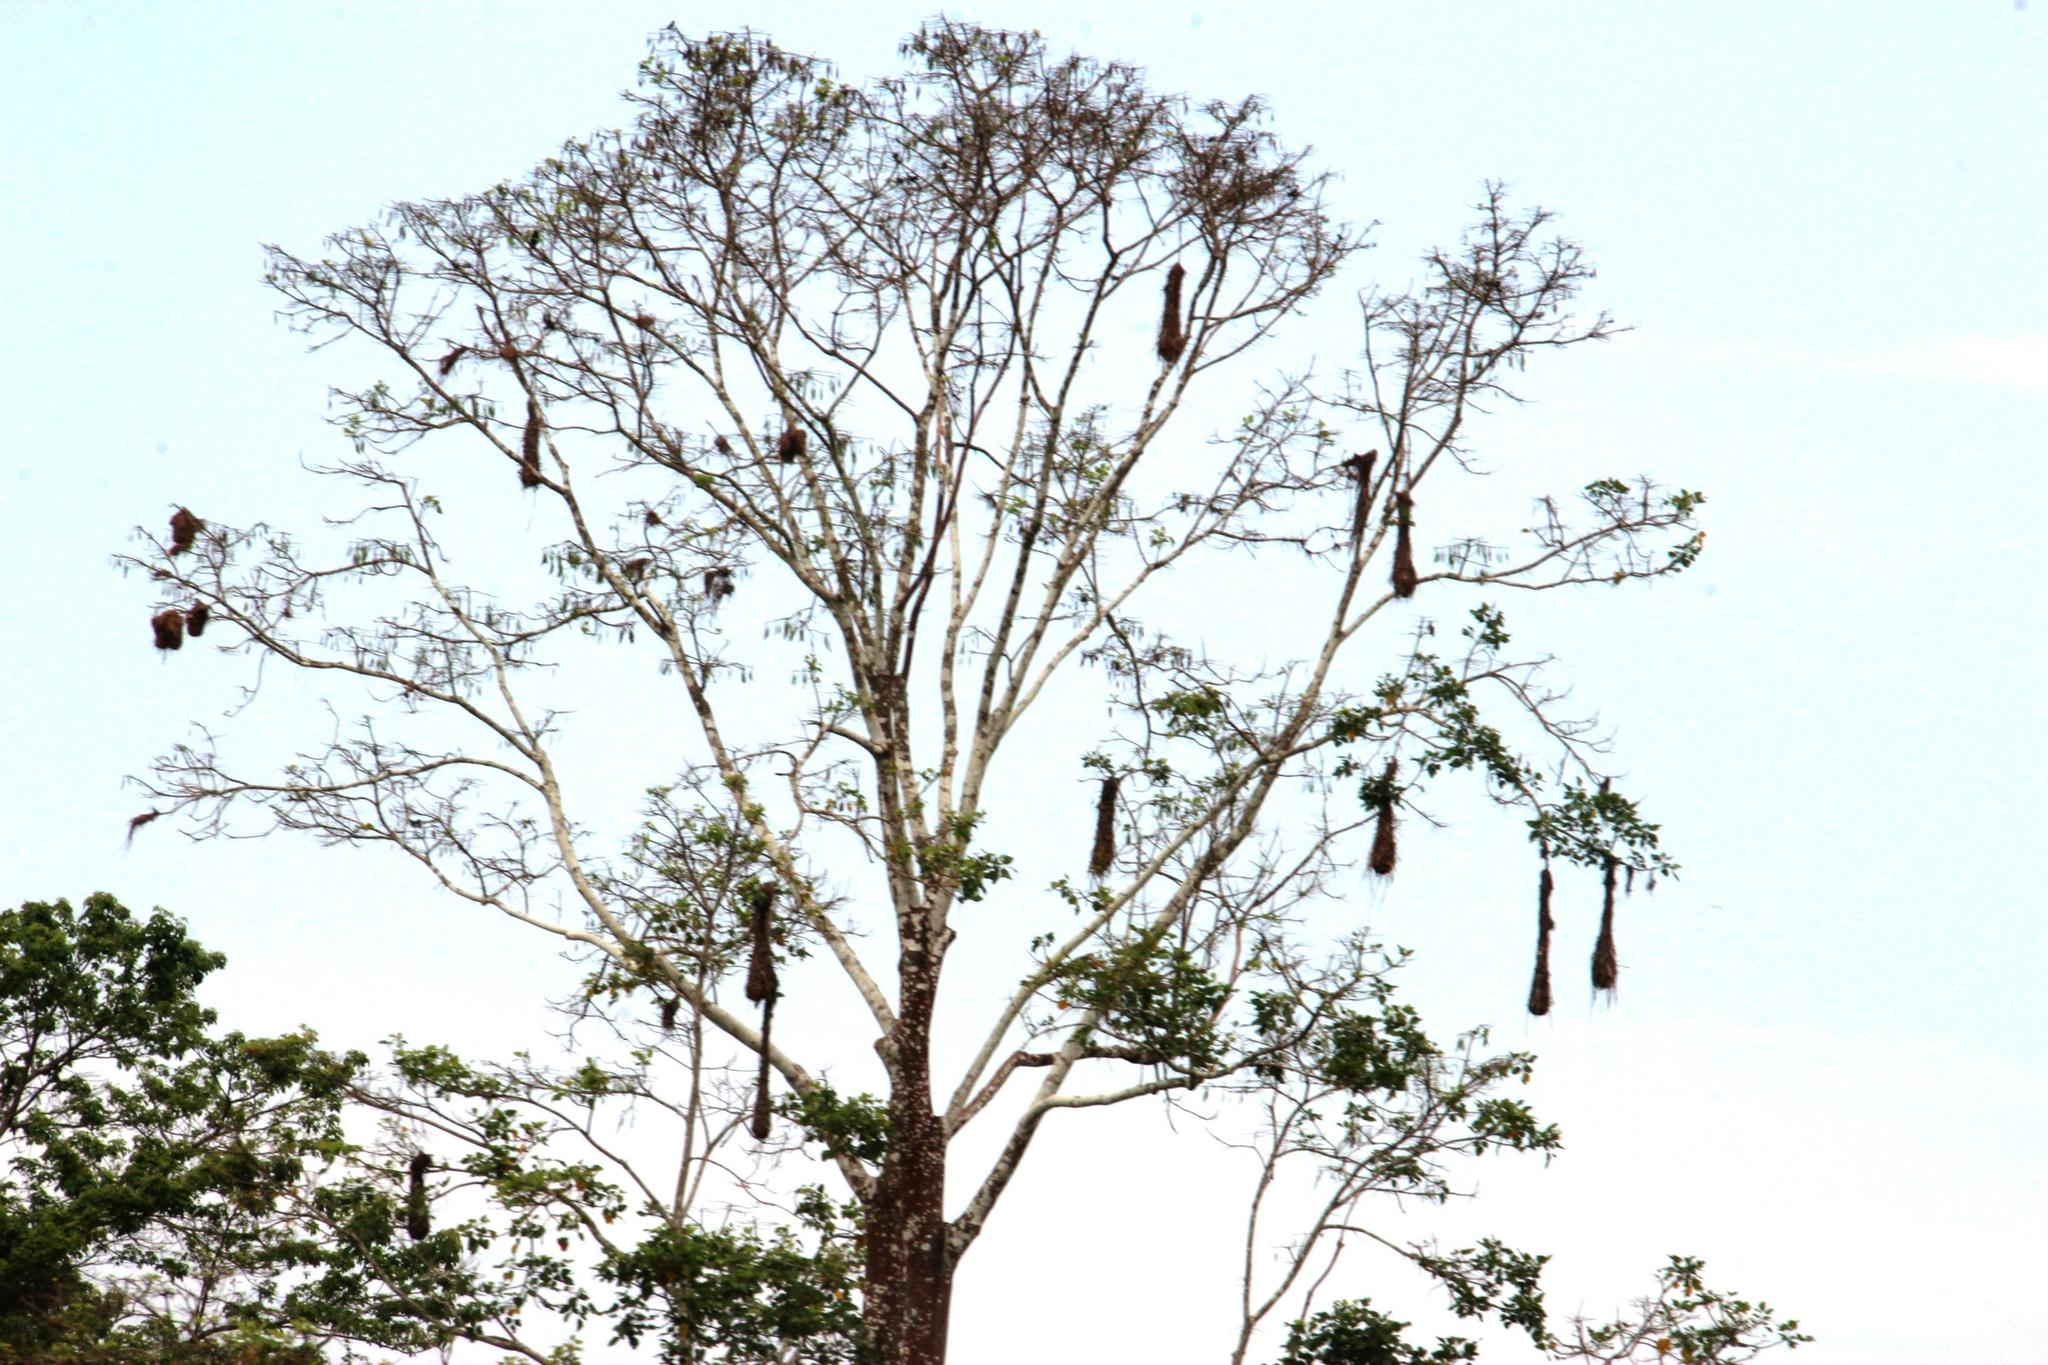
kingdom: Animalia
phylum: Chordata
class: Aves
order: Passeriformes
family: Icteridae
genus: Psarocolius
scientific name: Psarocolius
